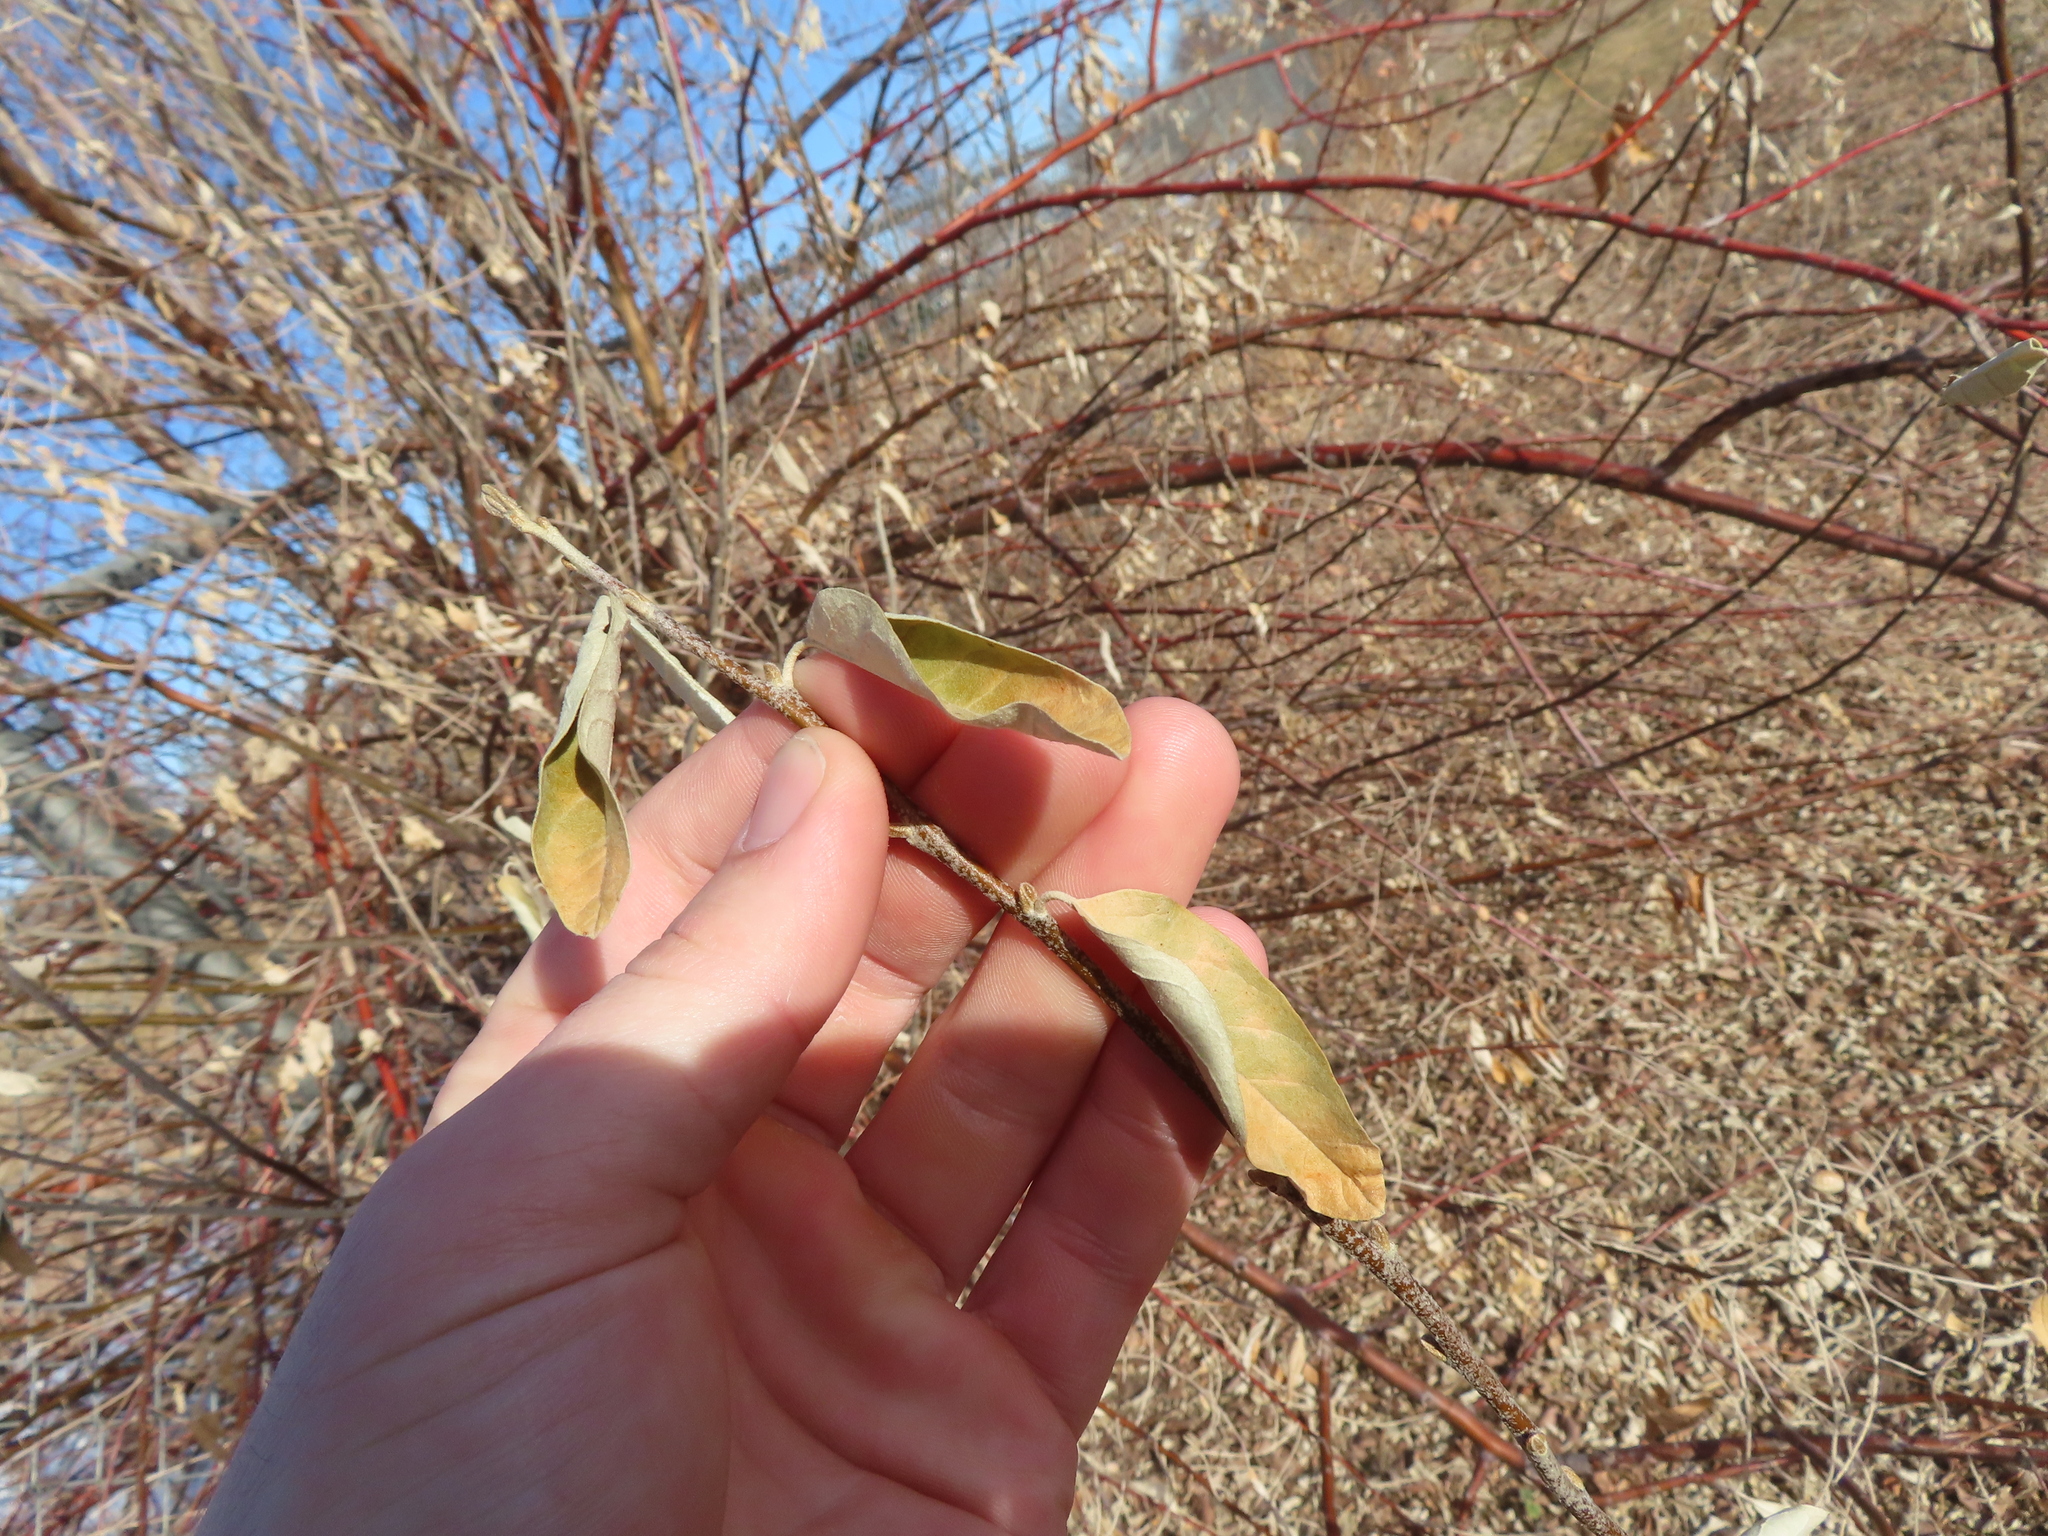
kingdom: Plantae
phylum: Tracheophyta
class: Magnoliopsida
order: Rosales
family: Elaeagnaceae
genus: Elaeagnus
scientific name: Elaeagnus angustifolia
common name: Russian olive
